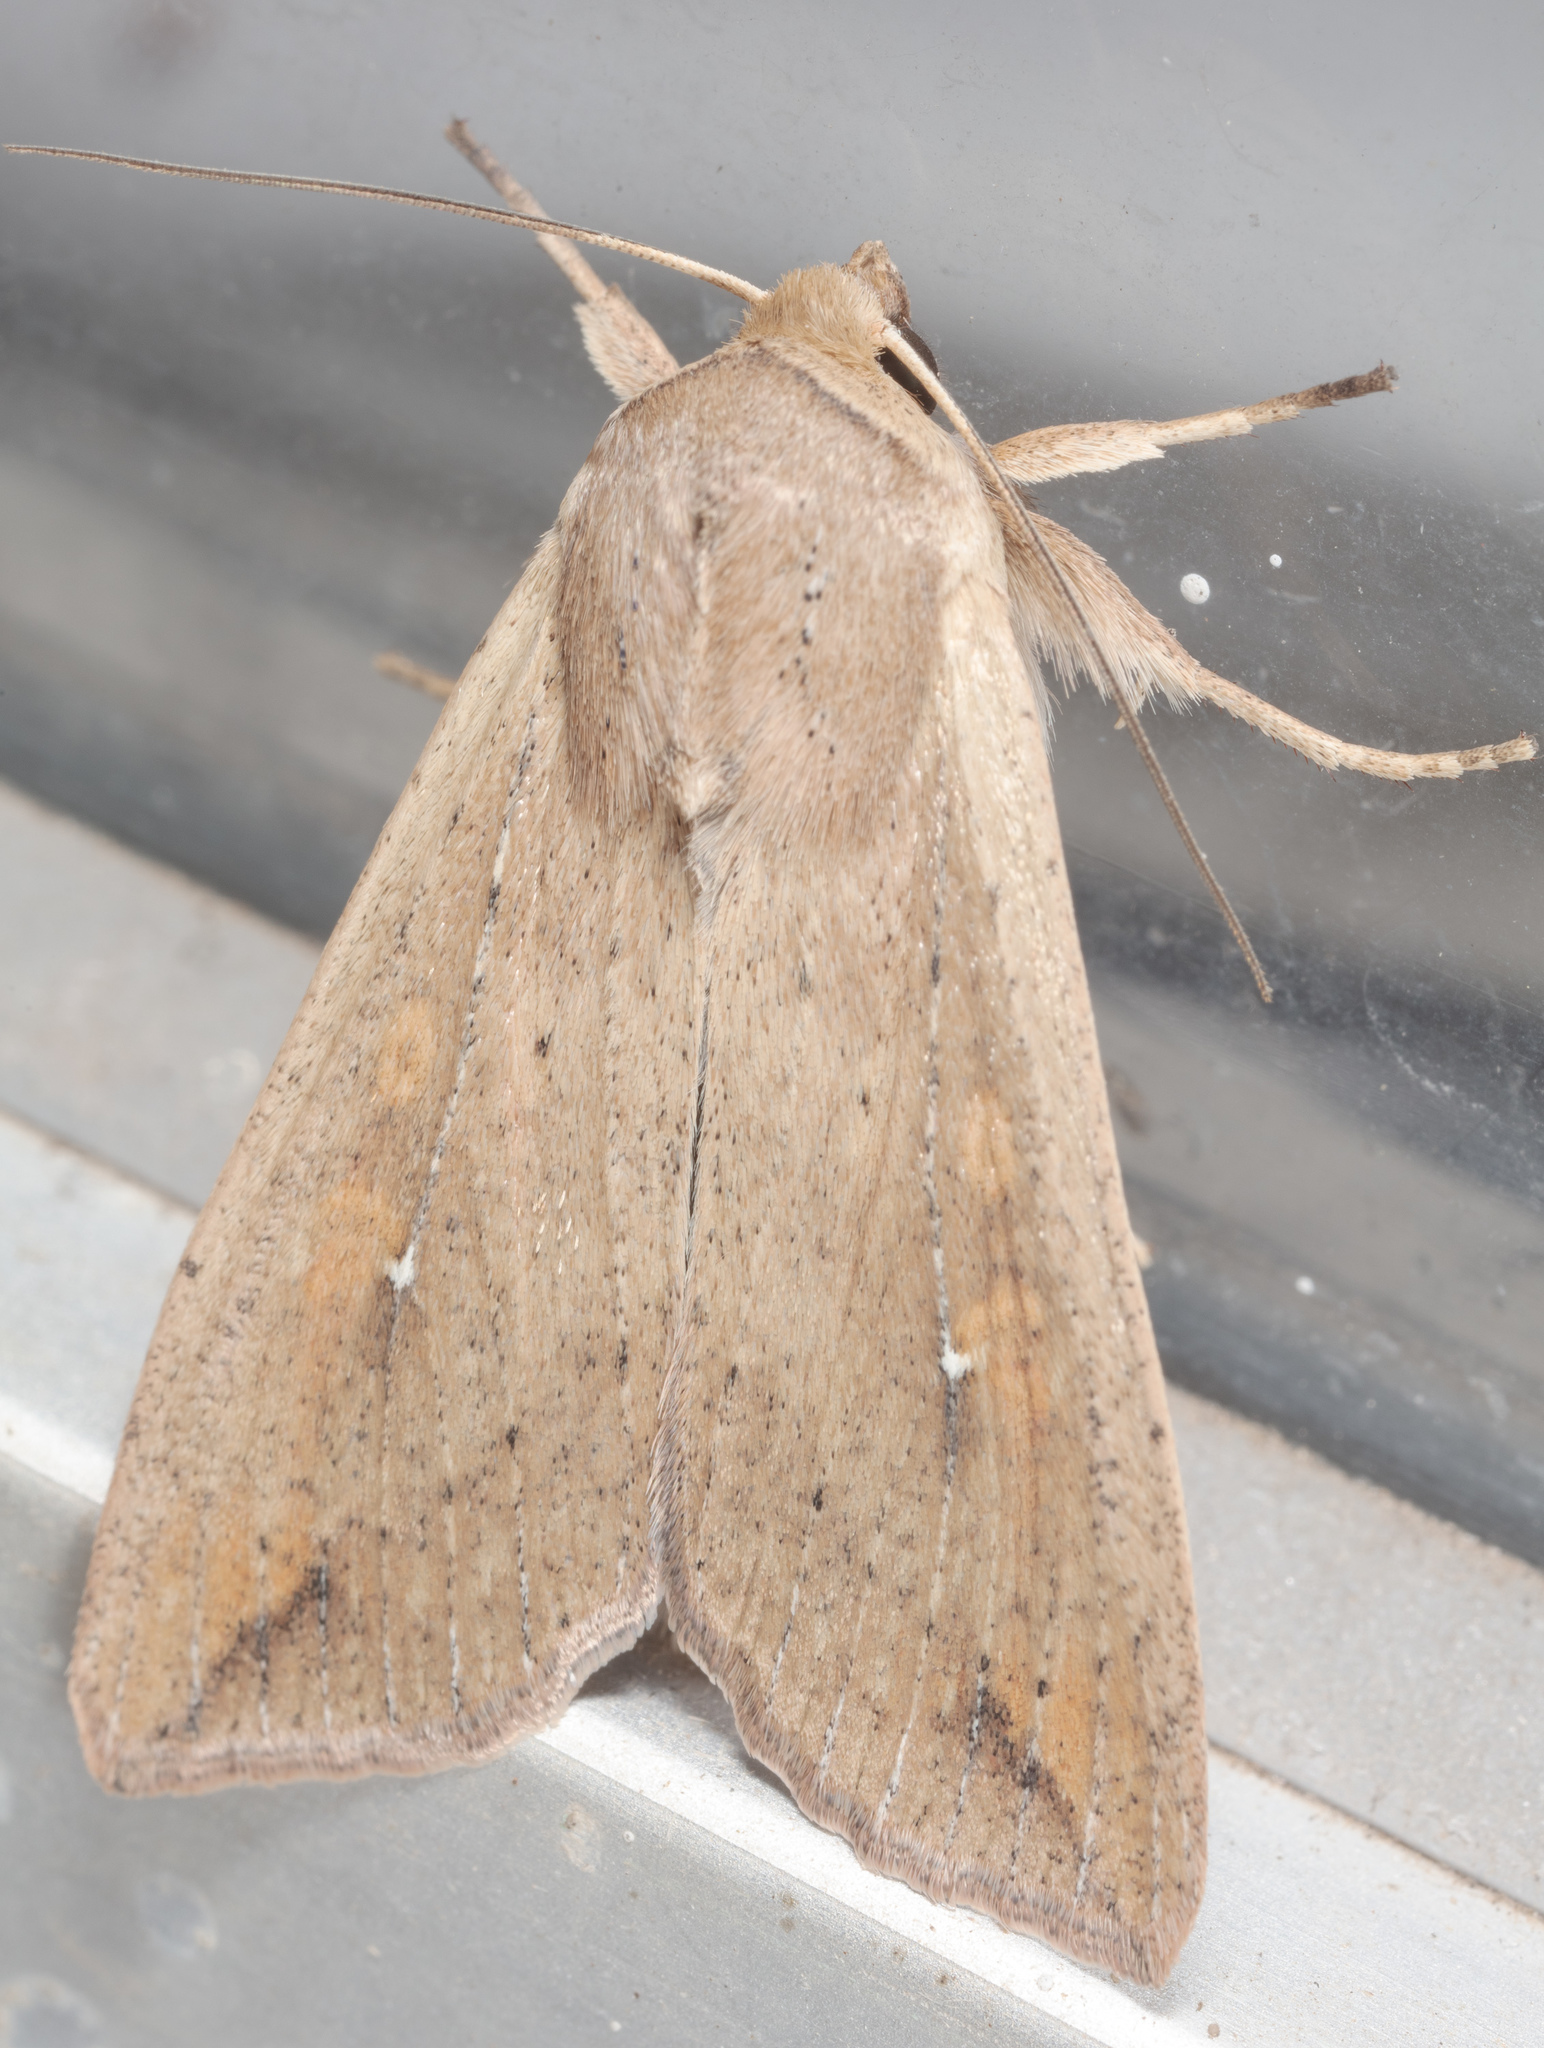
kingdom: Animalia
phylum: Arthropoda
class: Insecta
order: Lepidoptera
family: Noctuidae
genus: Mythimna
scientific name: Mythimna unipuncta
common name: White-speck
